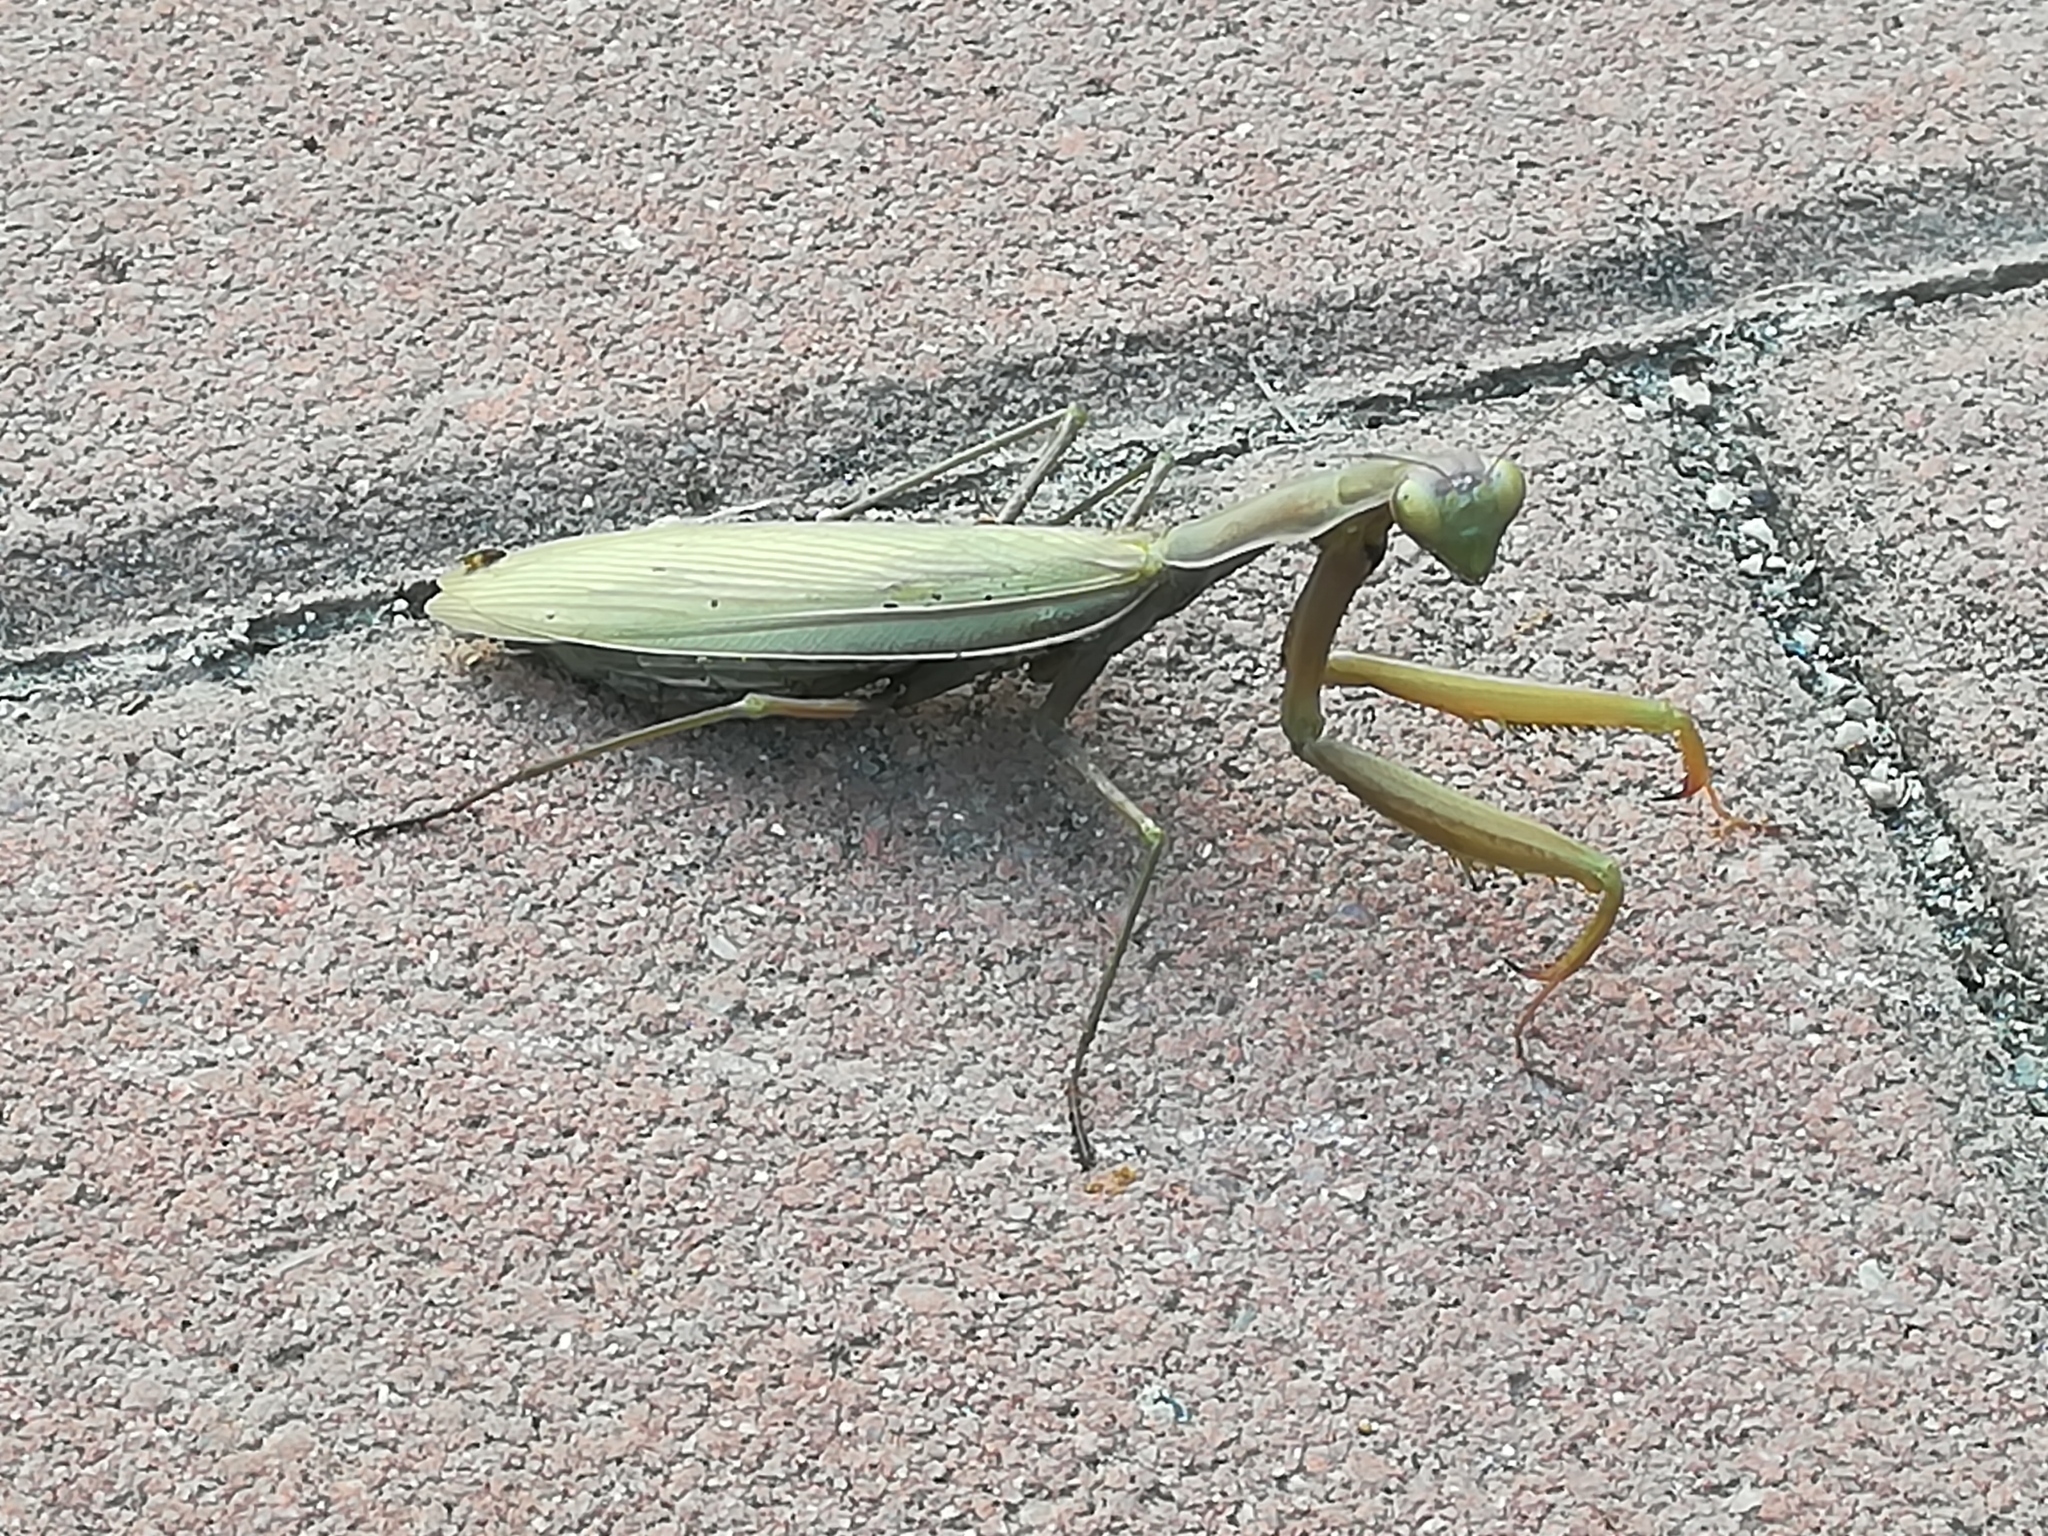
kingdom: Animalia
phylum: Arthropoda
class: Insecta
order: Mantodea
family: Mantidae
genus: Mantis
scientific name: Mantis religiosa
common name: Praying mantis
